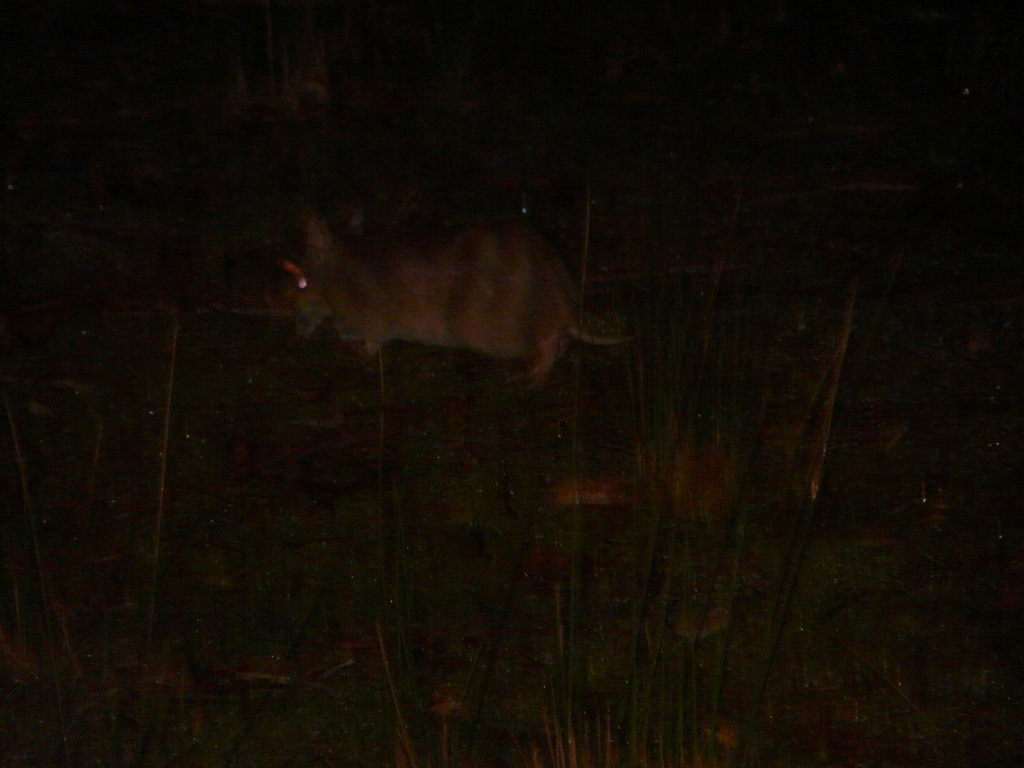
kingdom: Animalia
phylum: Chordata
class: Mammalia
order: Peramelemorphia
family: Peramelidae
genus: Perameles
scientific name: Perameles gunnii
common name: Eastern barred bandicoot
